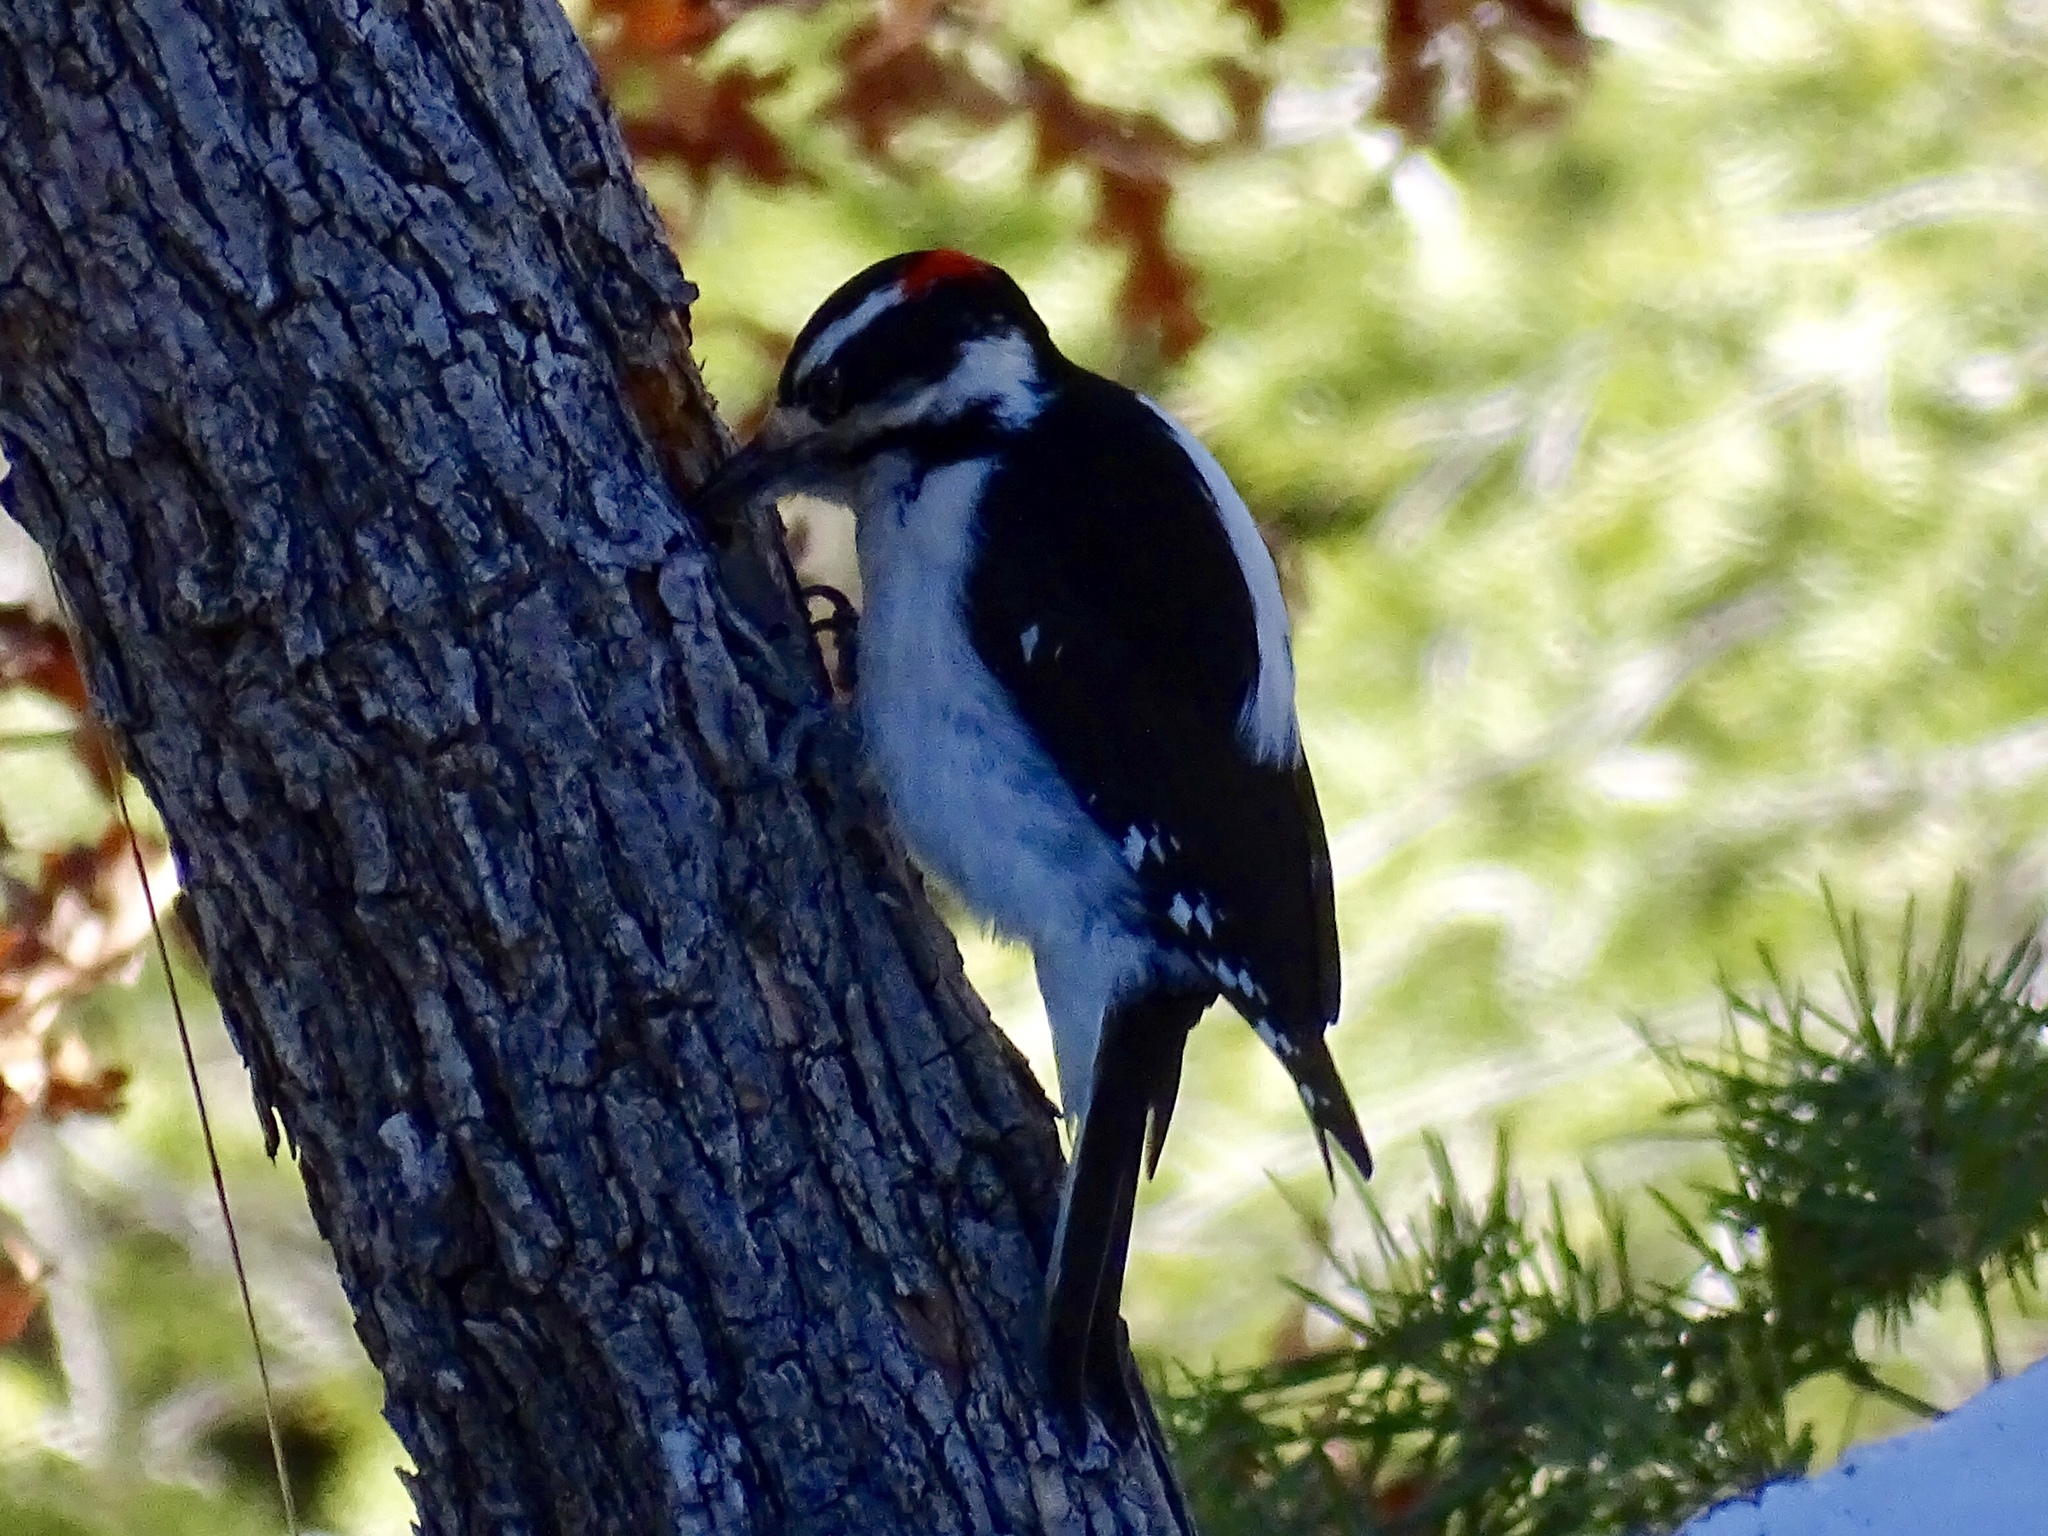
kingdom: Animalia
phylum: Chordata
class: Aves
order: Piciformes
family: Picidae
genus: Leuconotopicus
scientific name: Leuconotopicus villosus
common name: Hairy woodpecker
